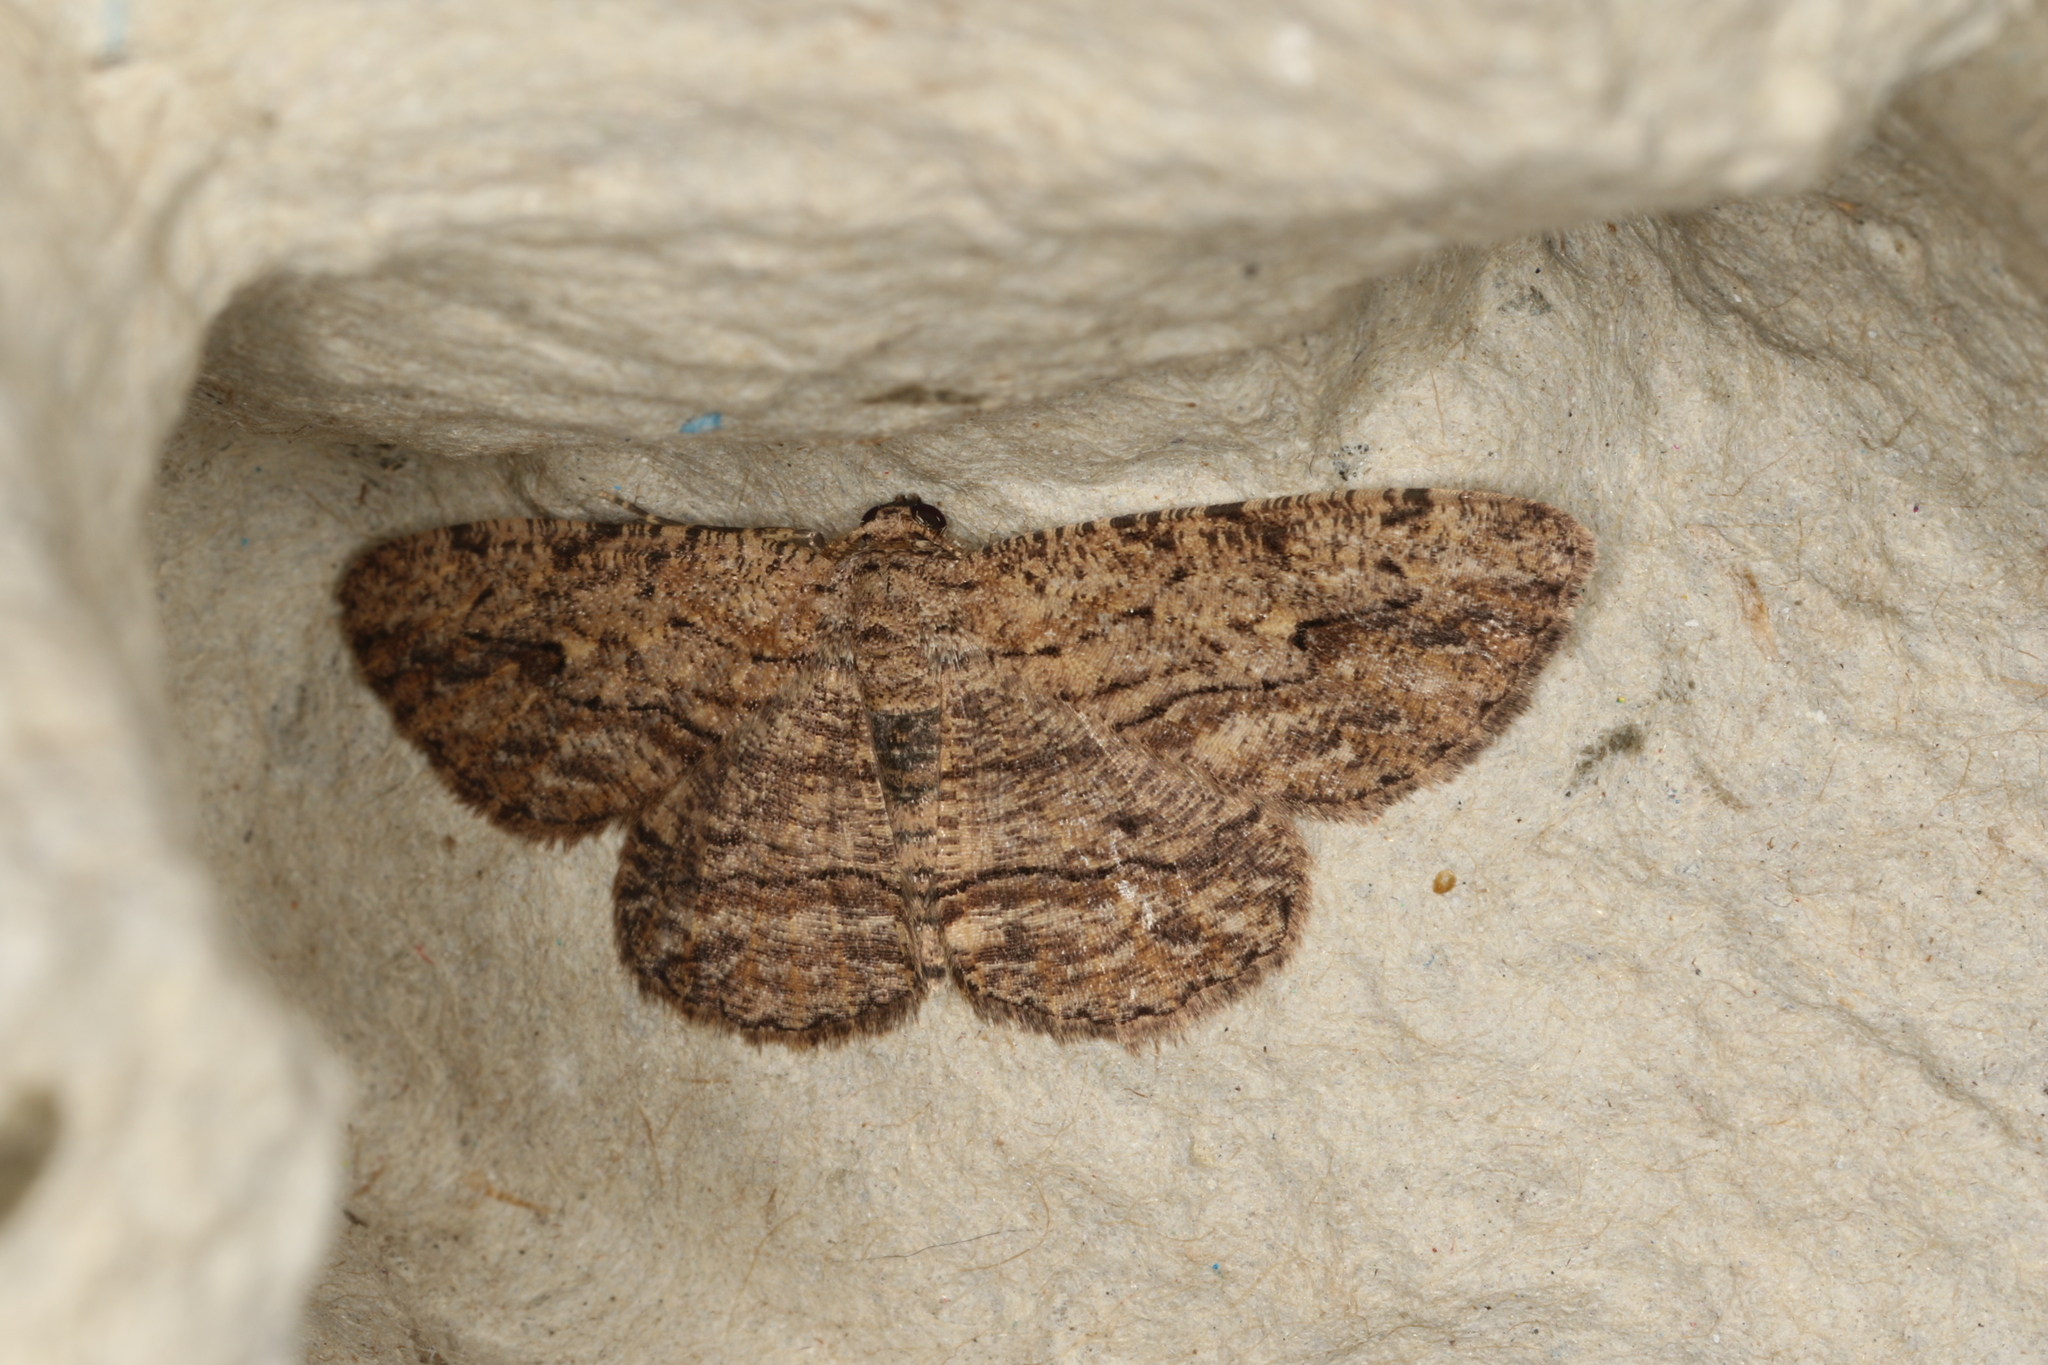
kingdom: Animalia
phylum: Arthropoda
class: Insecta
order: Lepidoptera
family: Geometridae
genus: Ectropis
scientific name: Ectropis excursaria
